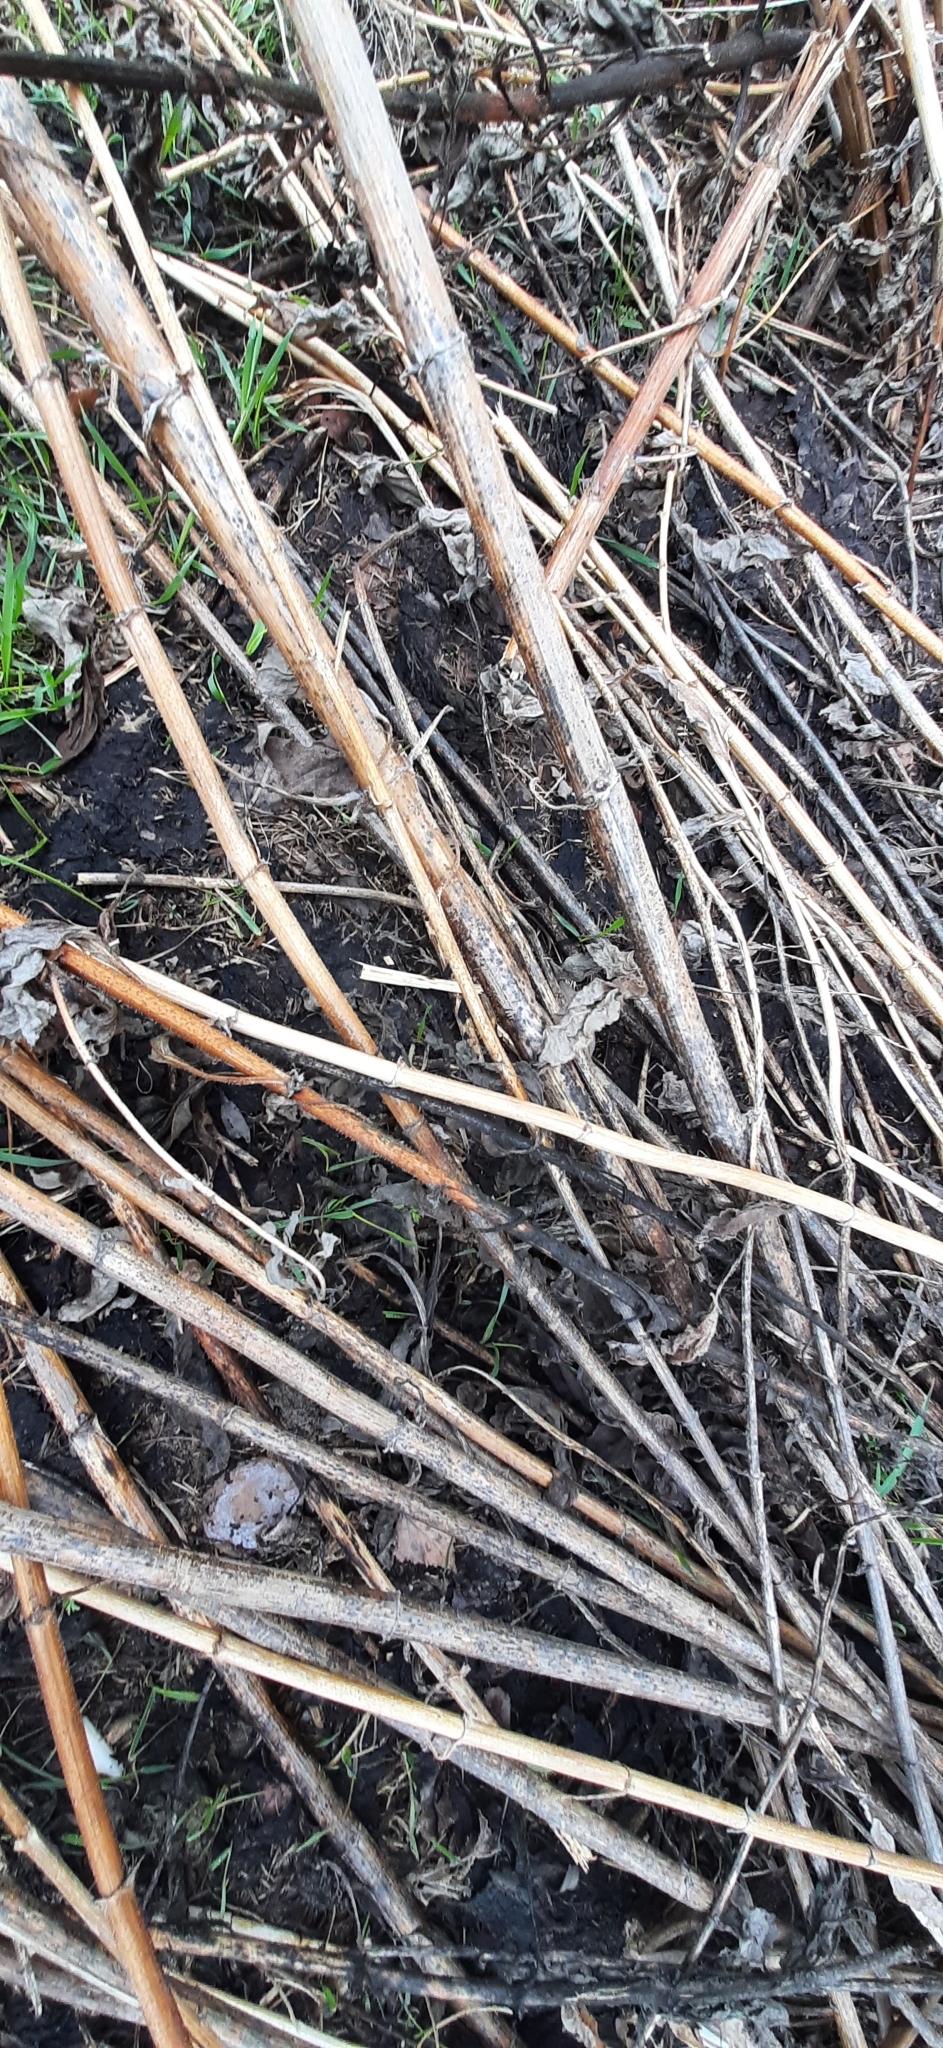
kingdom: Plantae
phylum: Tracheophyta
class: Magnoliopsida
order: Asterales
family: Asteraceae
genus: Helianthus
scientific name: Helianthus tuberosus
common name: Jerusalem artichoke
